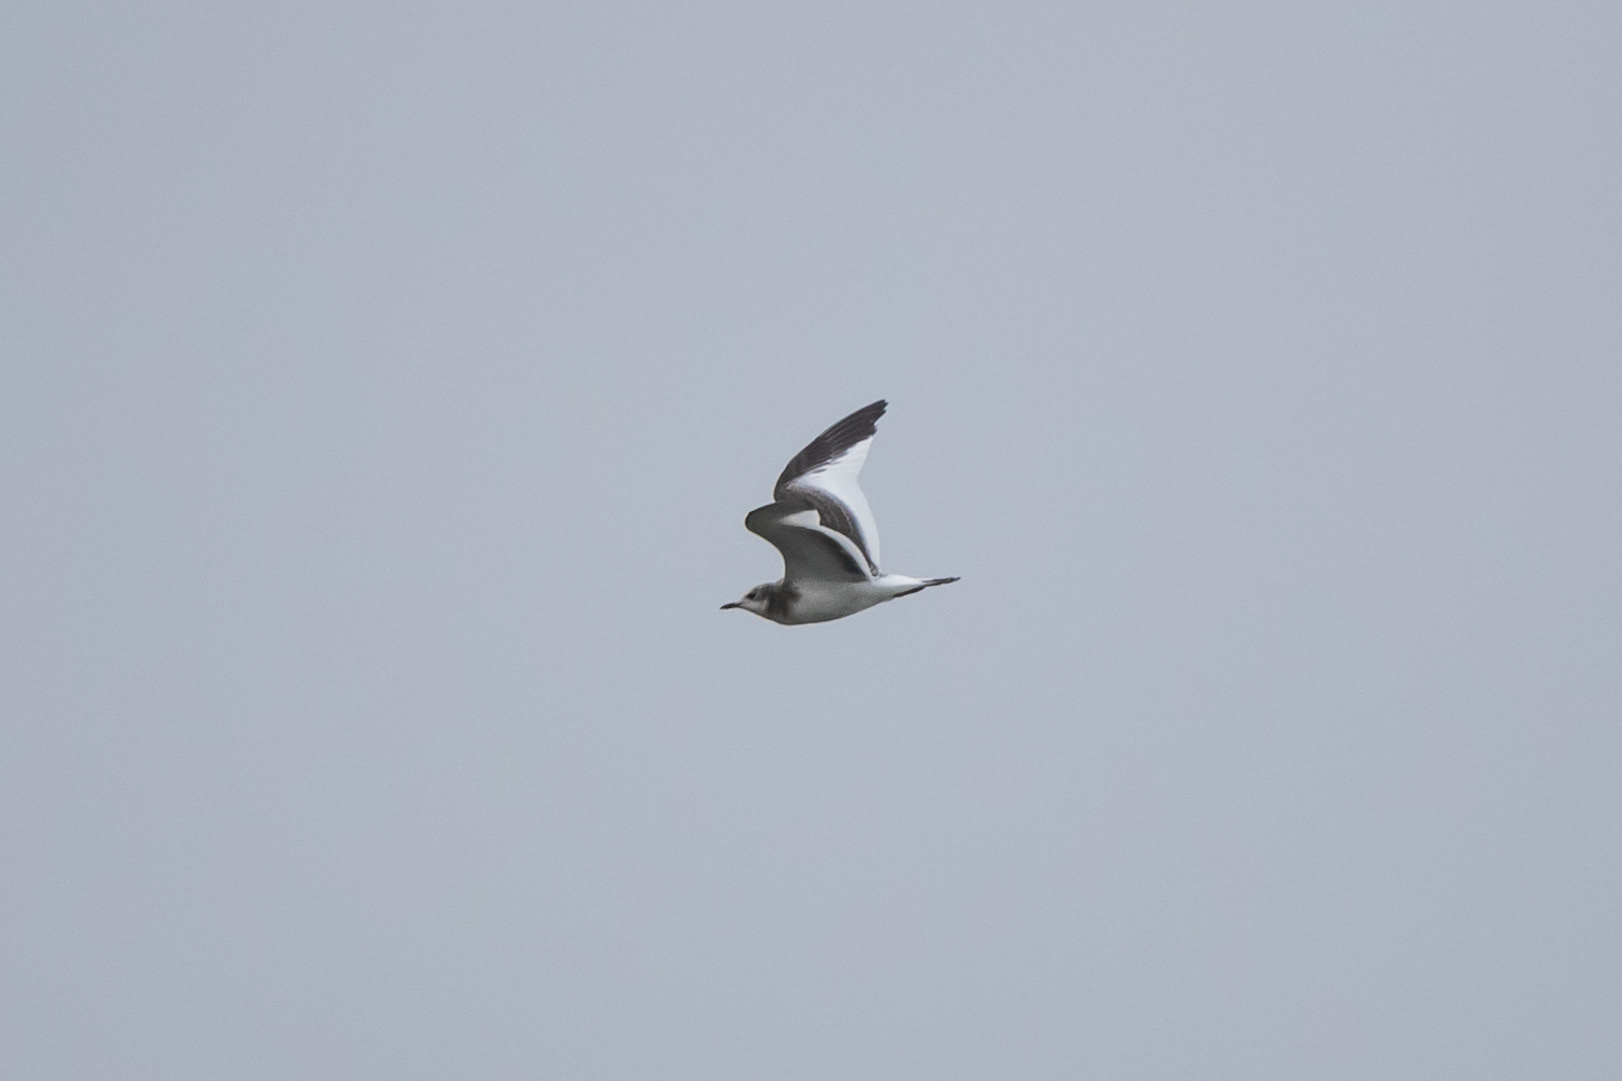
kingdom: Animalia
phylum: Chordata
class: Aves
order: Charadriiformes
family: Laridae
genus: Xema
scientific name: Xema sabini
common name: Sabine's gull
